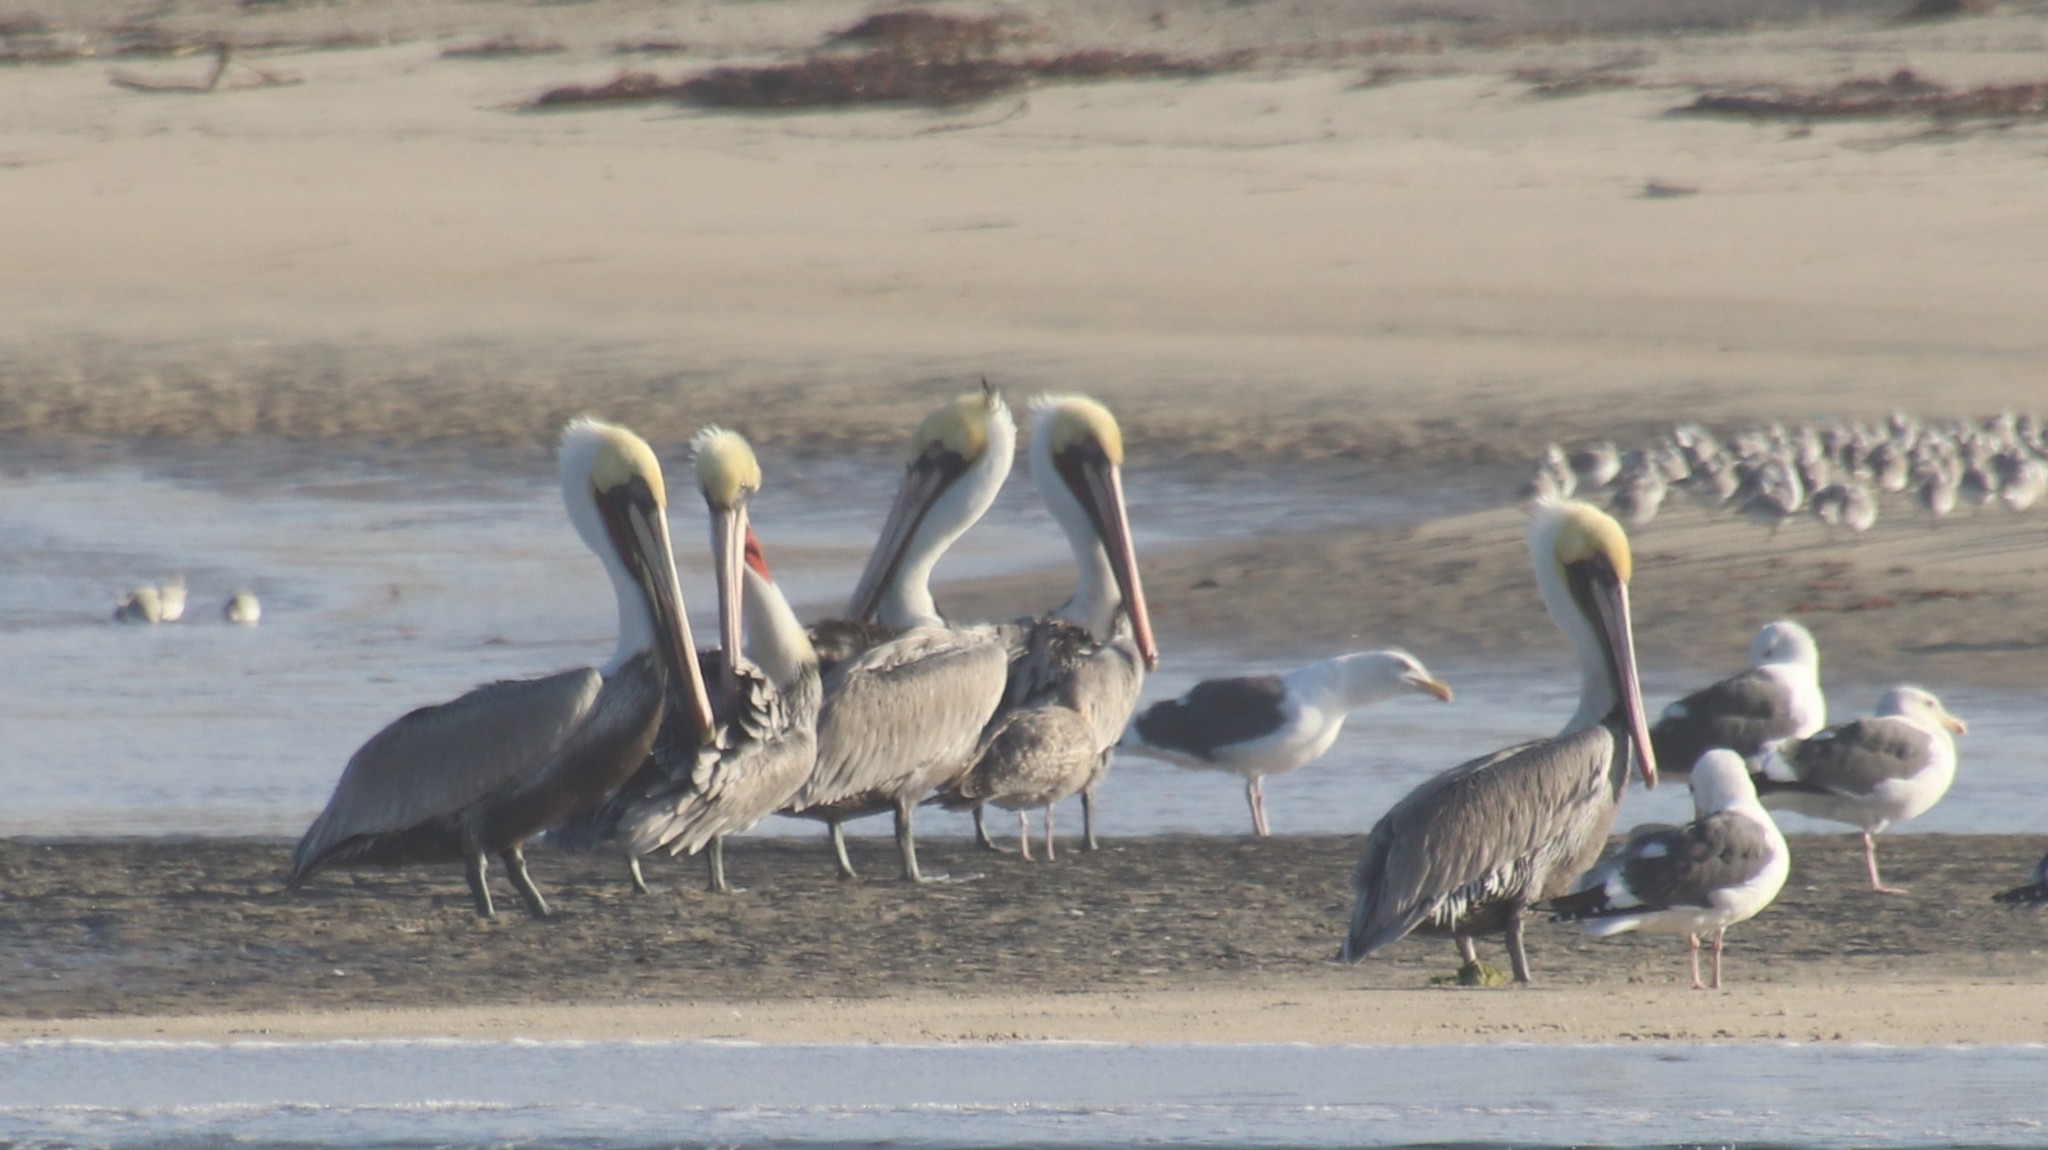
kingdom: Animalia
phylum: Chordata
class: Aves
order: Pelecaniformes
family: Pelecanidae
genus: Pelecanus
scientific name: Pelecanus occidentalis
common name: Brown pelican
